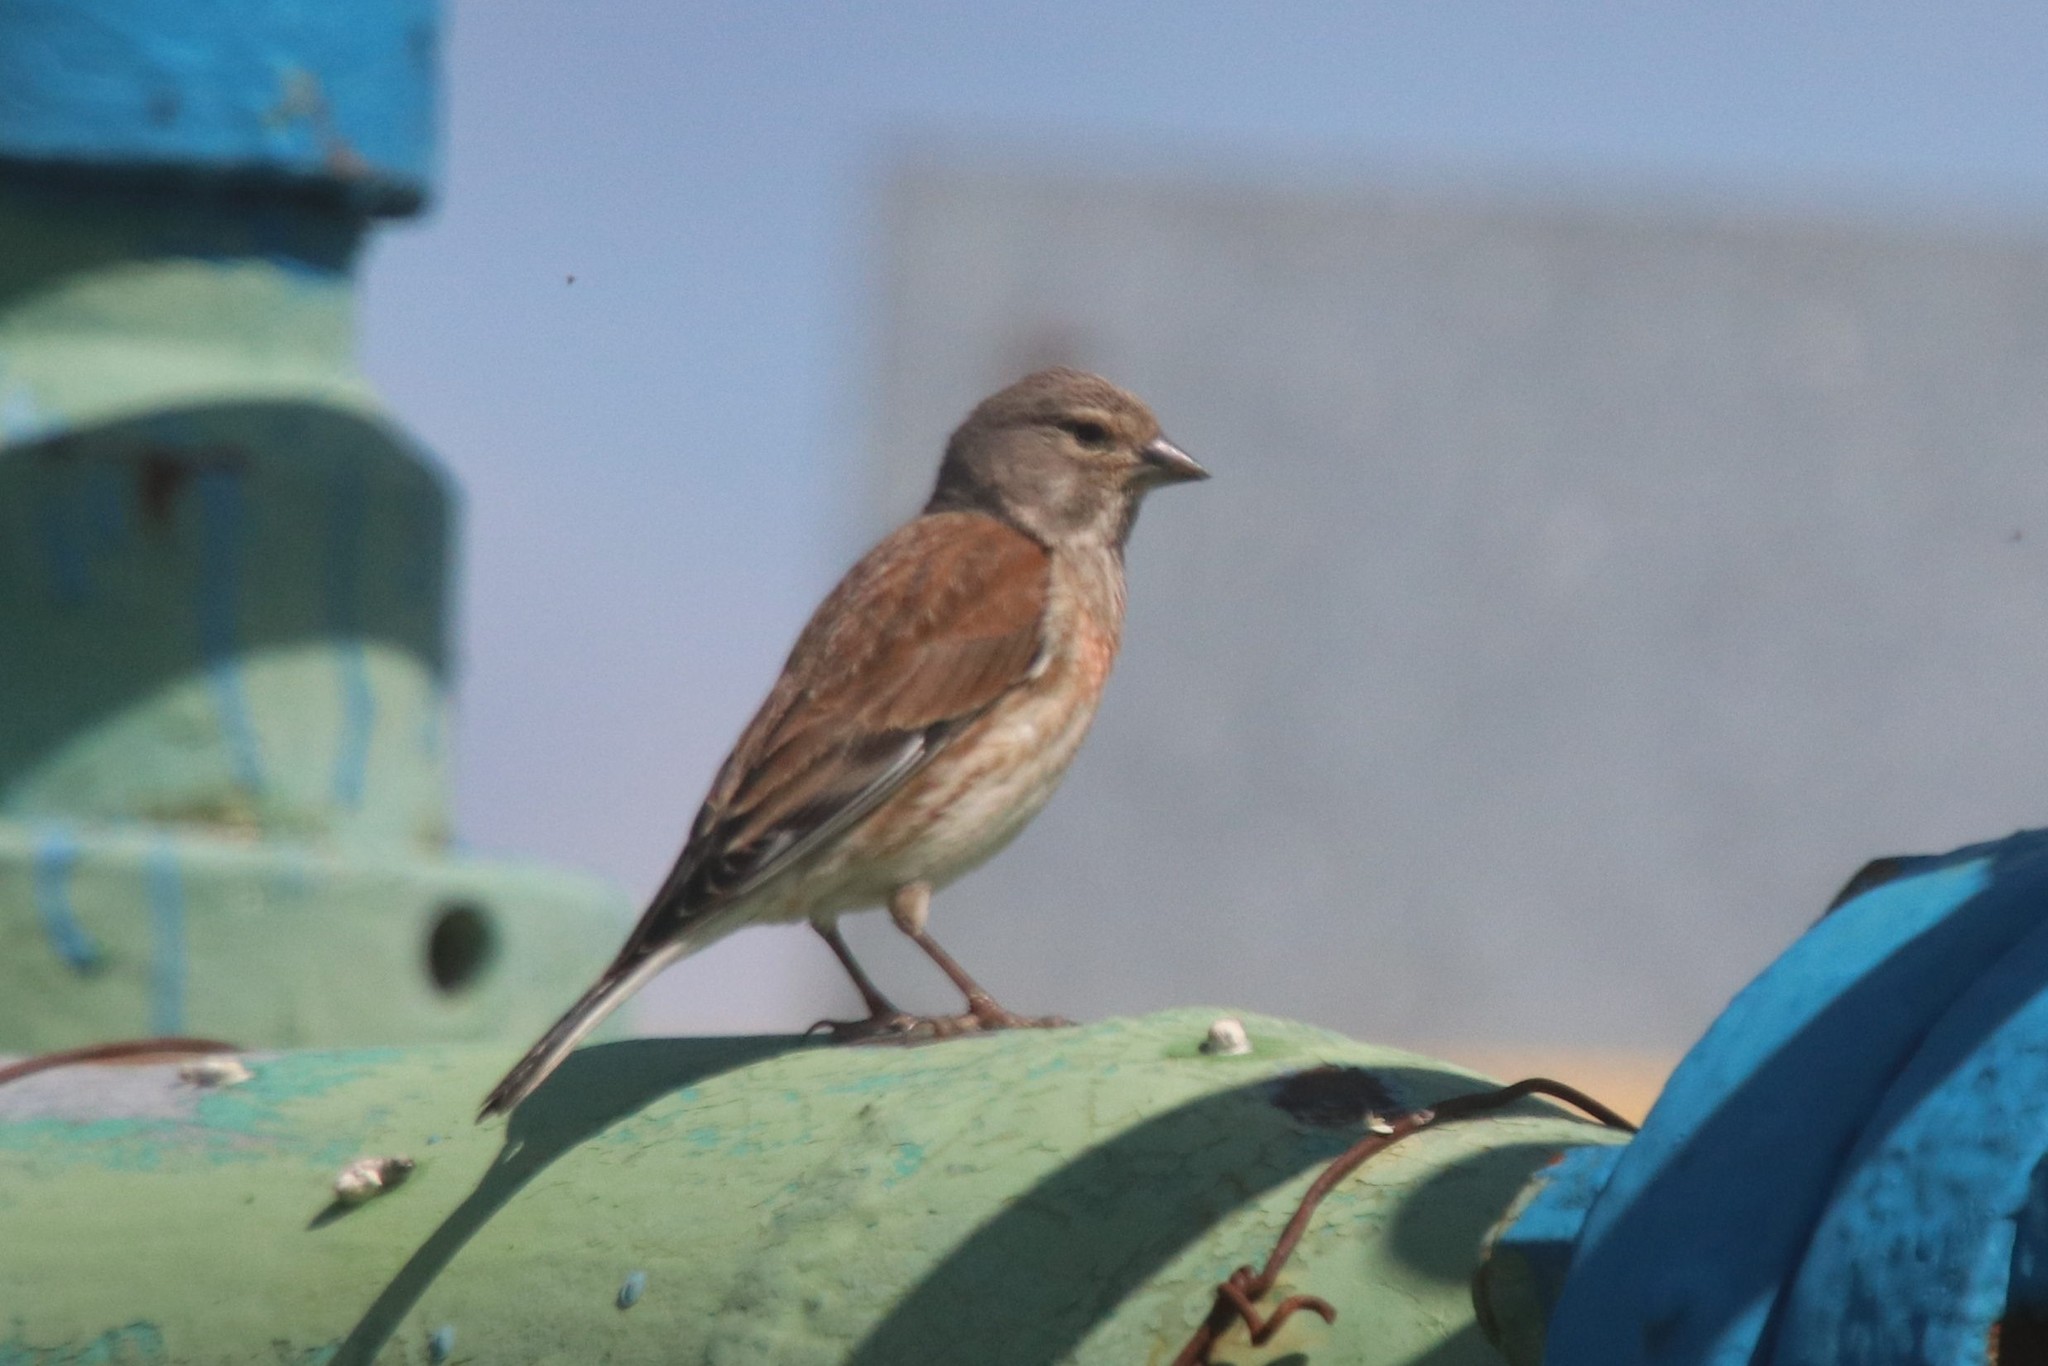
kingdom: Animalia
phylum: Chordata
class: Aves
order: Passeriformes
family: Fringillidae
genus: Linaria
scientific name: Linaria cannabina
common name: Common linnet
